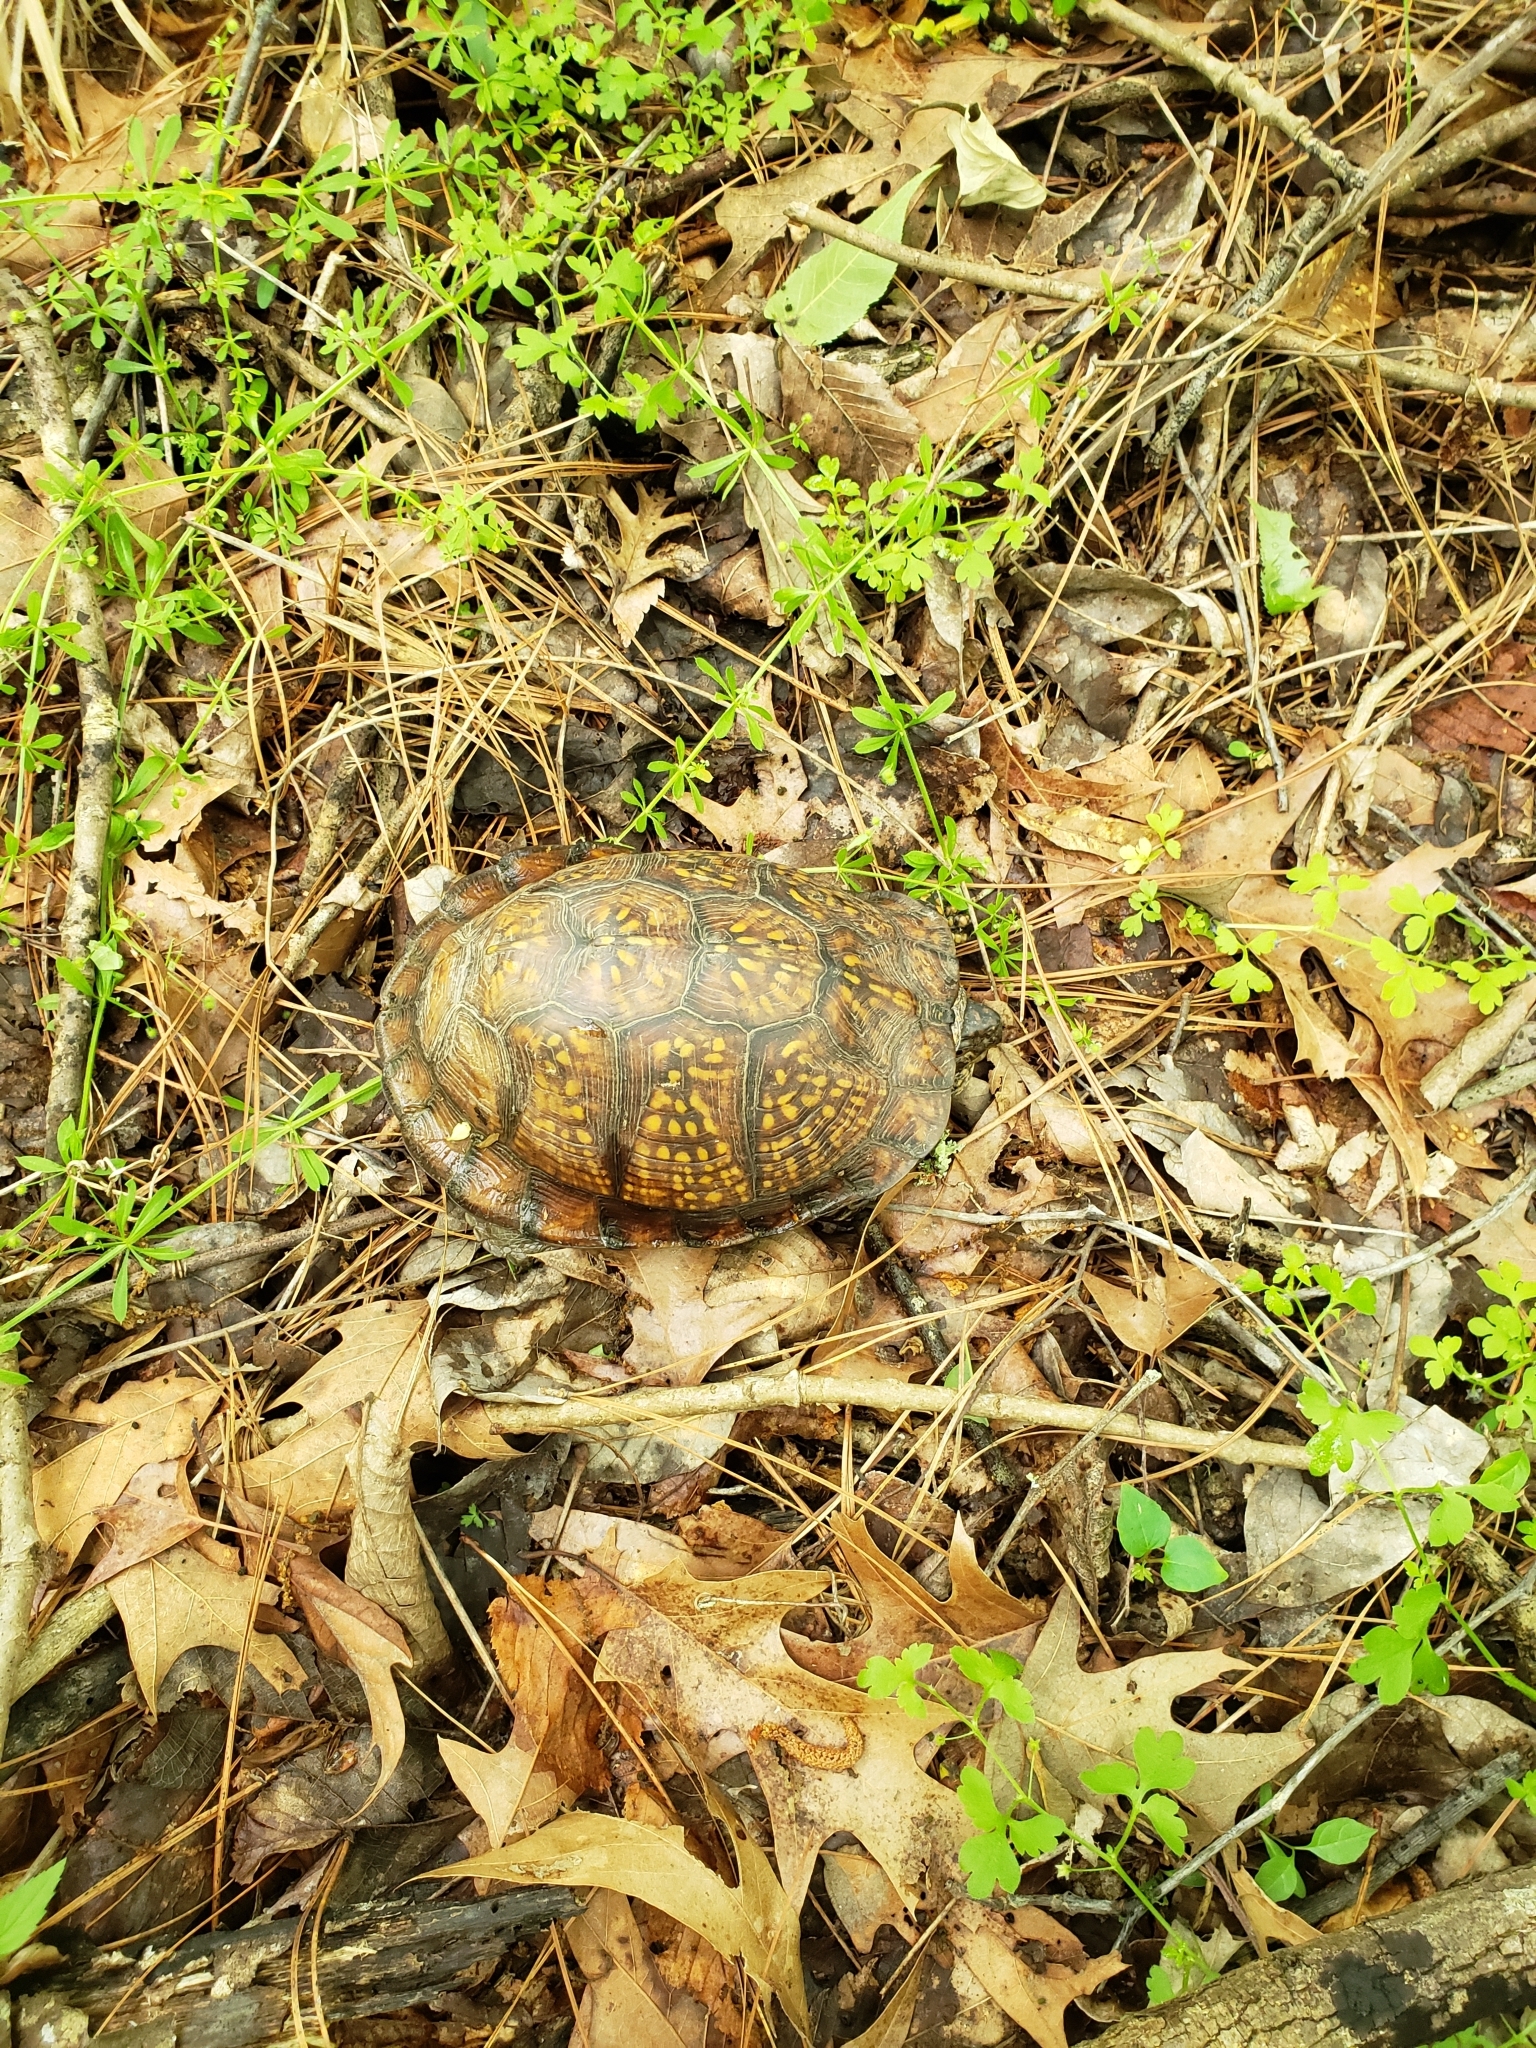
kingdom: Animalia
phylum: Chordata
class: Testudines
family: Emydidae
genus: Terrapene
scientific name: Terrapene carolina
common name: Common box turtle
